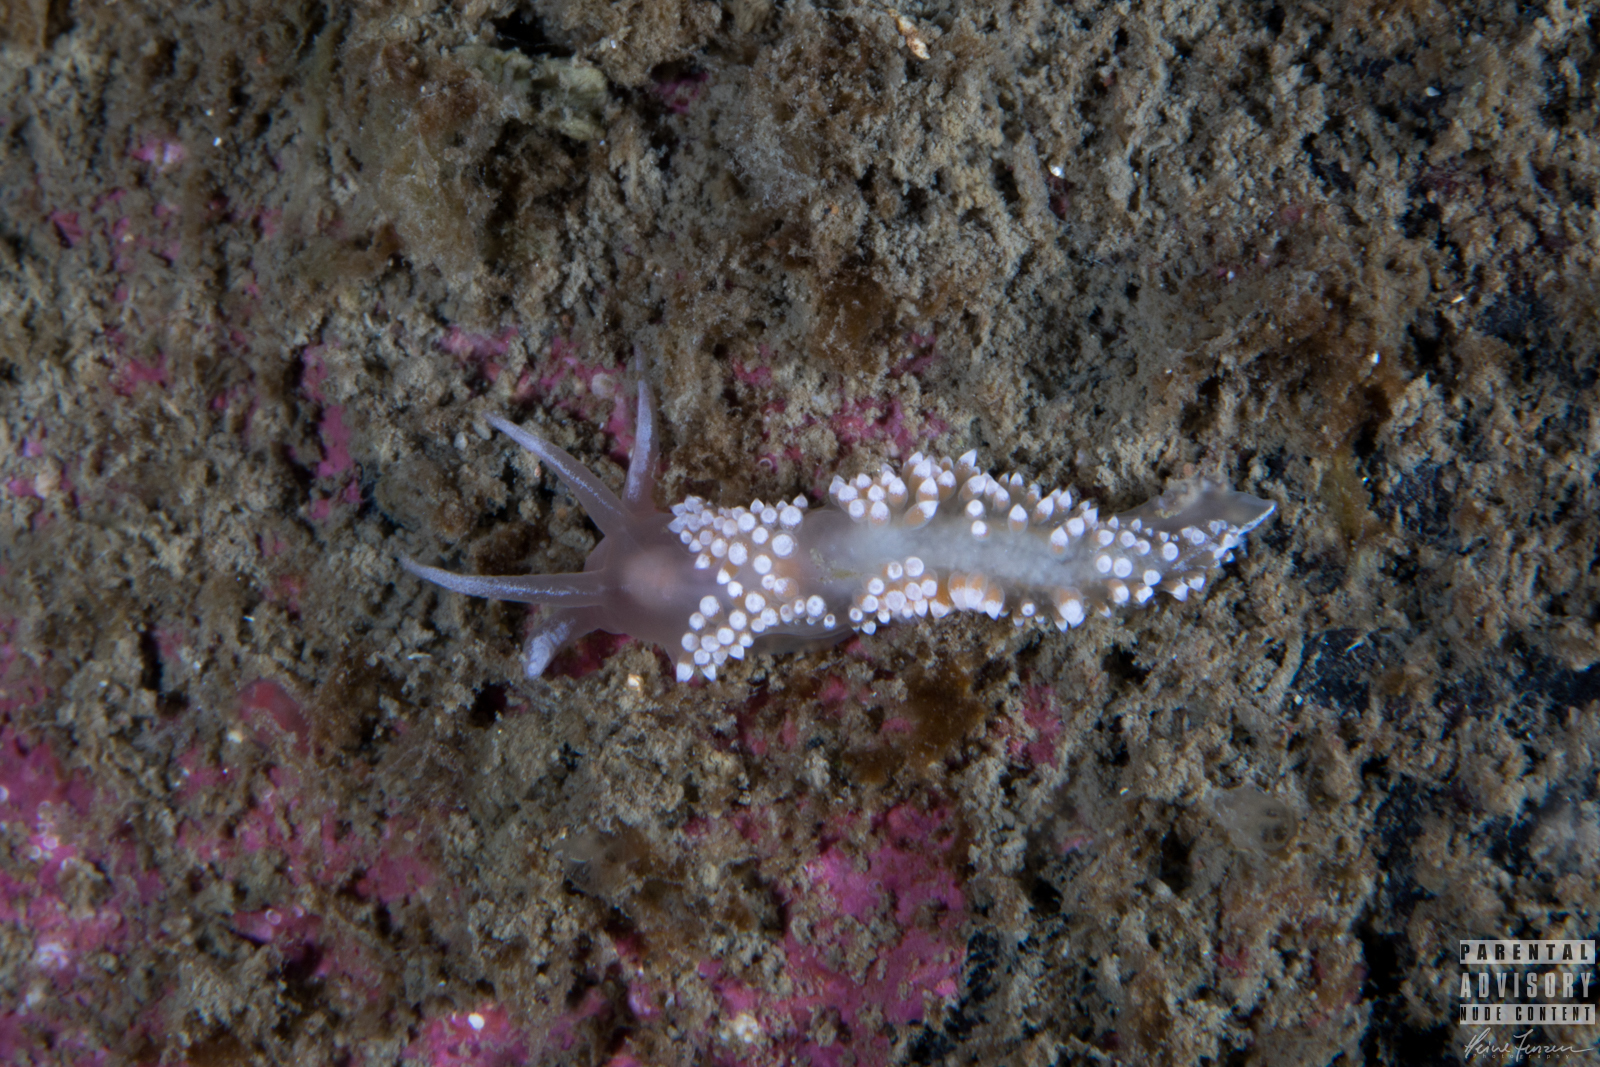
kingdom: Animalia
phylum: Mollusca
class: Gastropoda
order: Nudibranchia
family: Coryphellidae
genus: Coryphella
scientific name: Coryphella verrucosa
